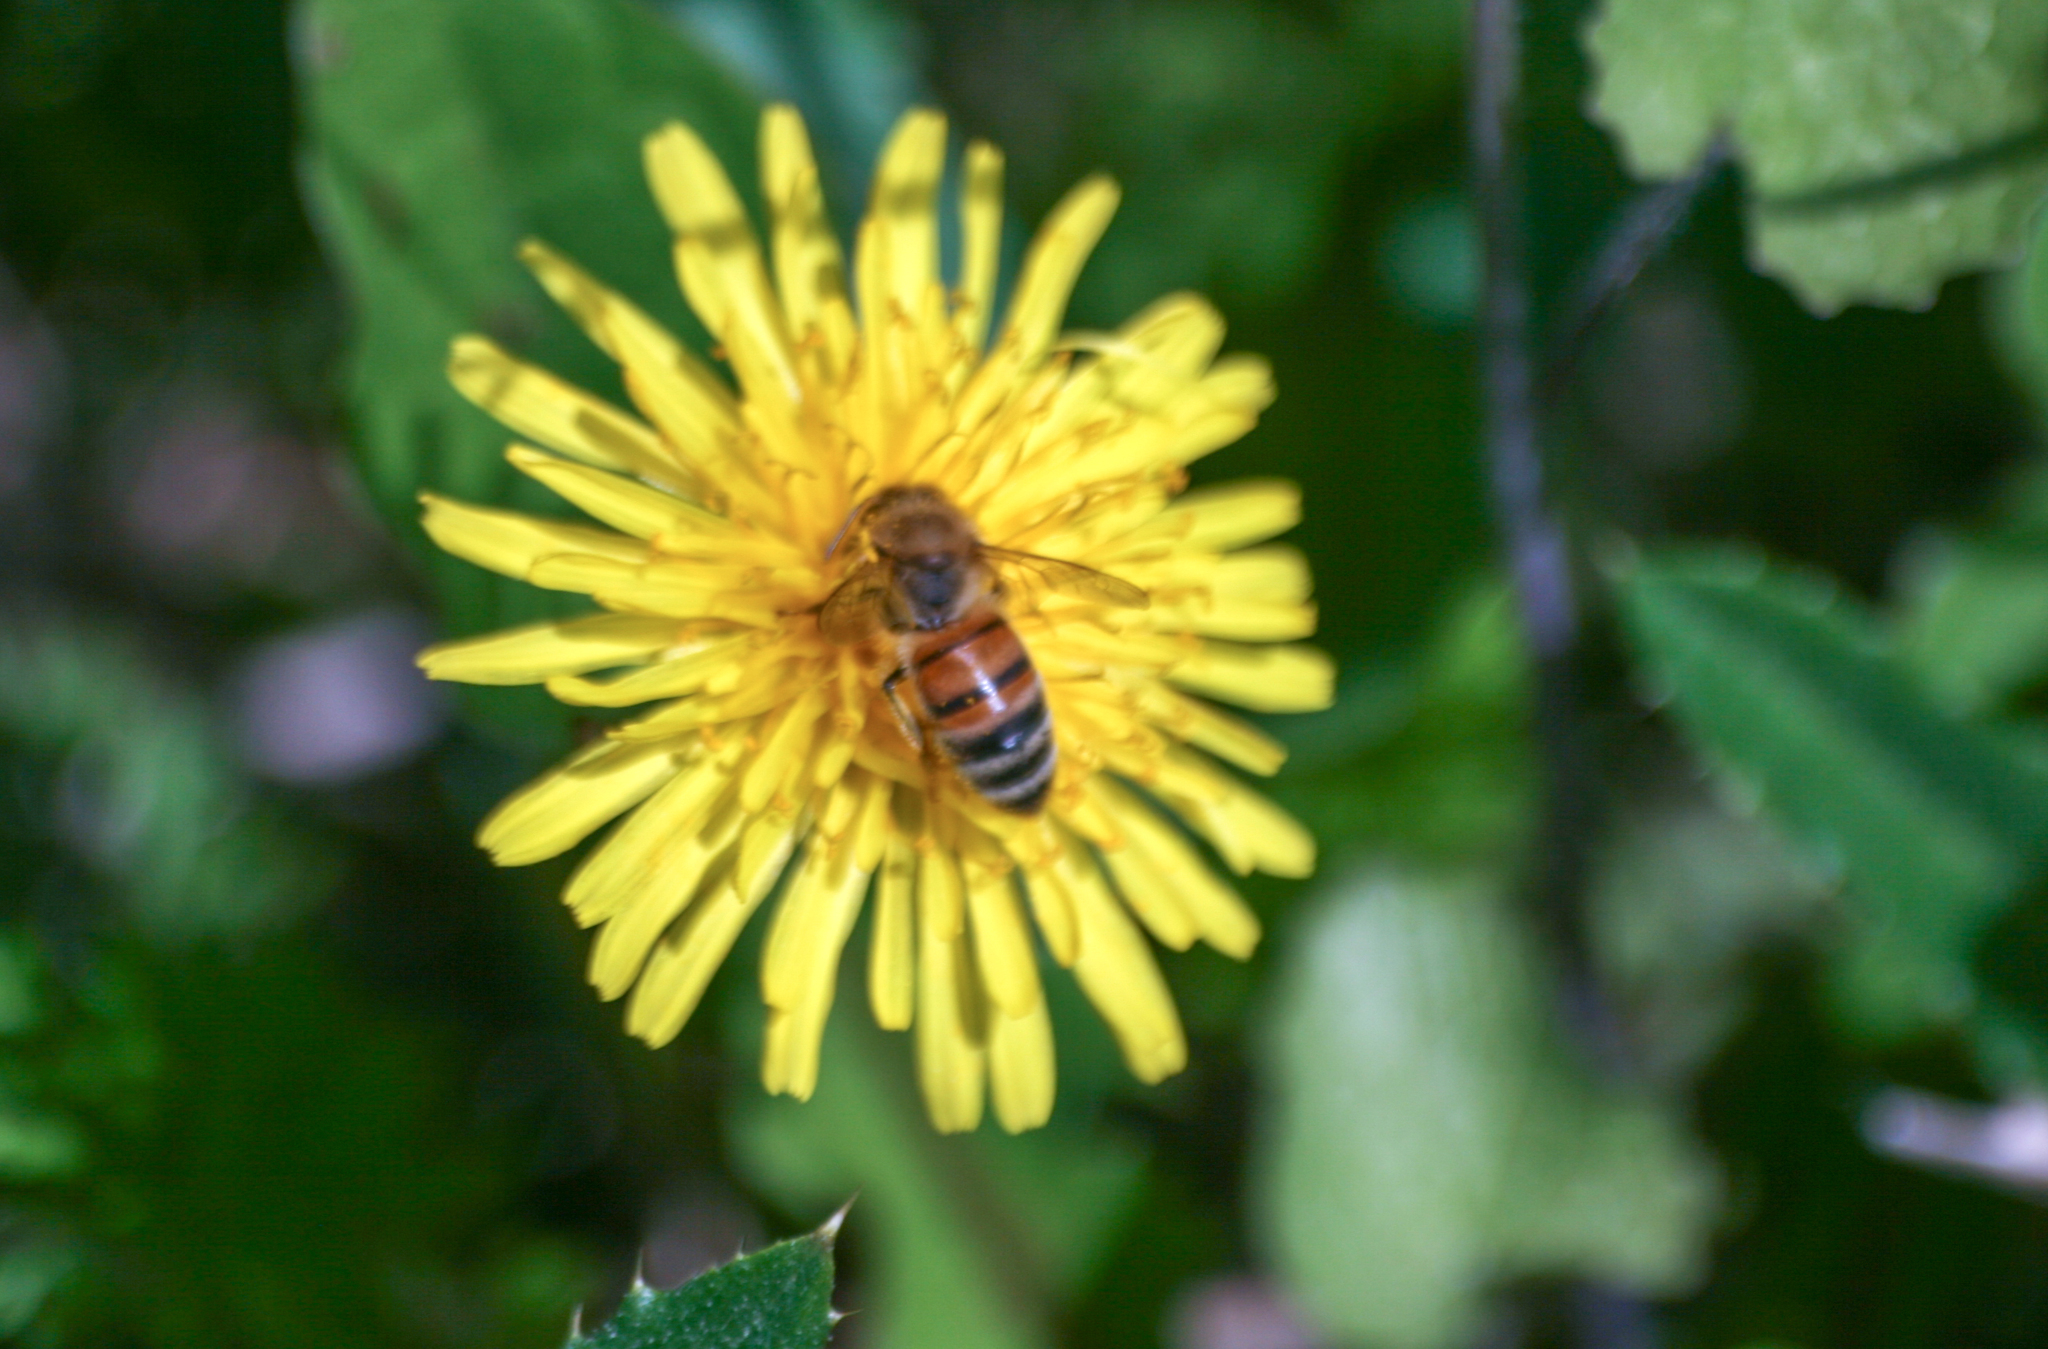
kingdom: Animalia
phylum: Arthropoda
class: Insecta
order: Hymenoptera
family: Apidae
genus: Apis
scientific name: Apis mellifera
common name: Honey bee
